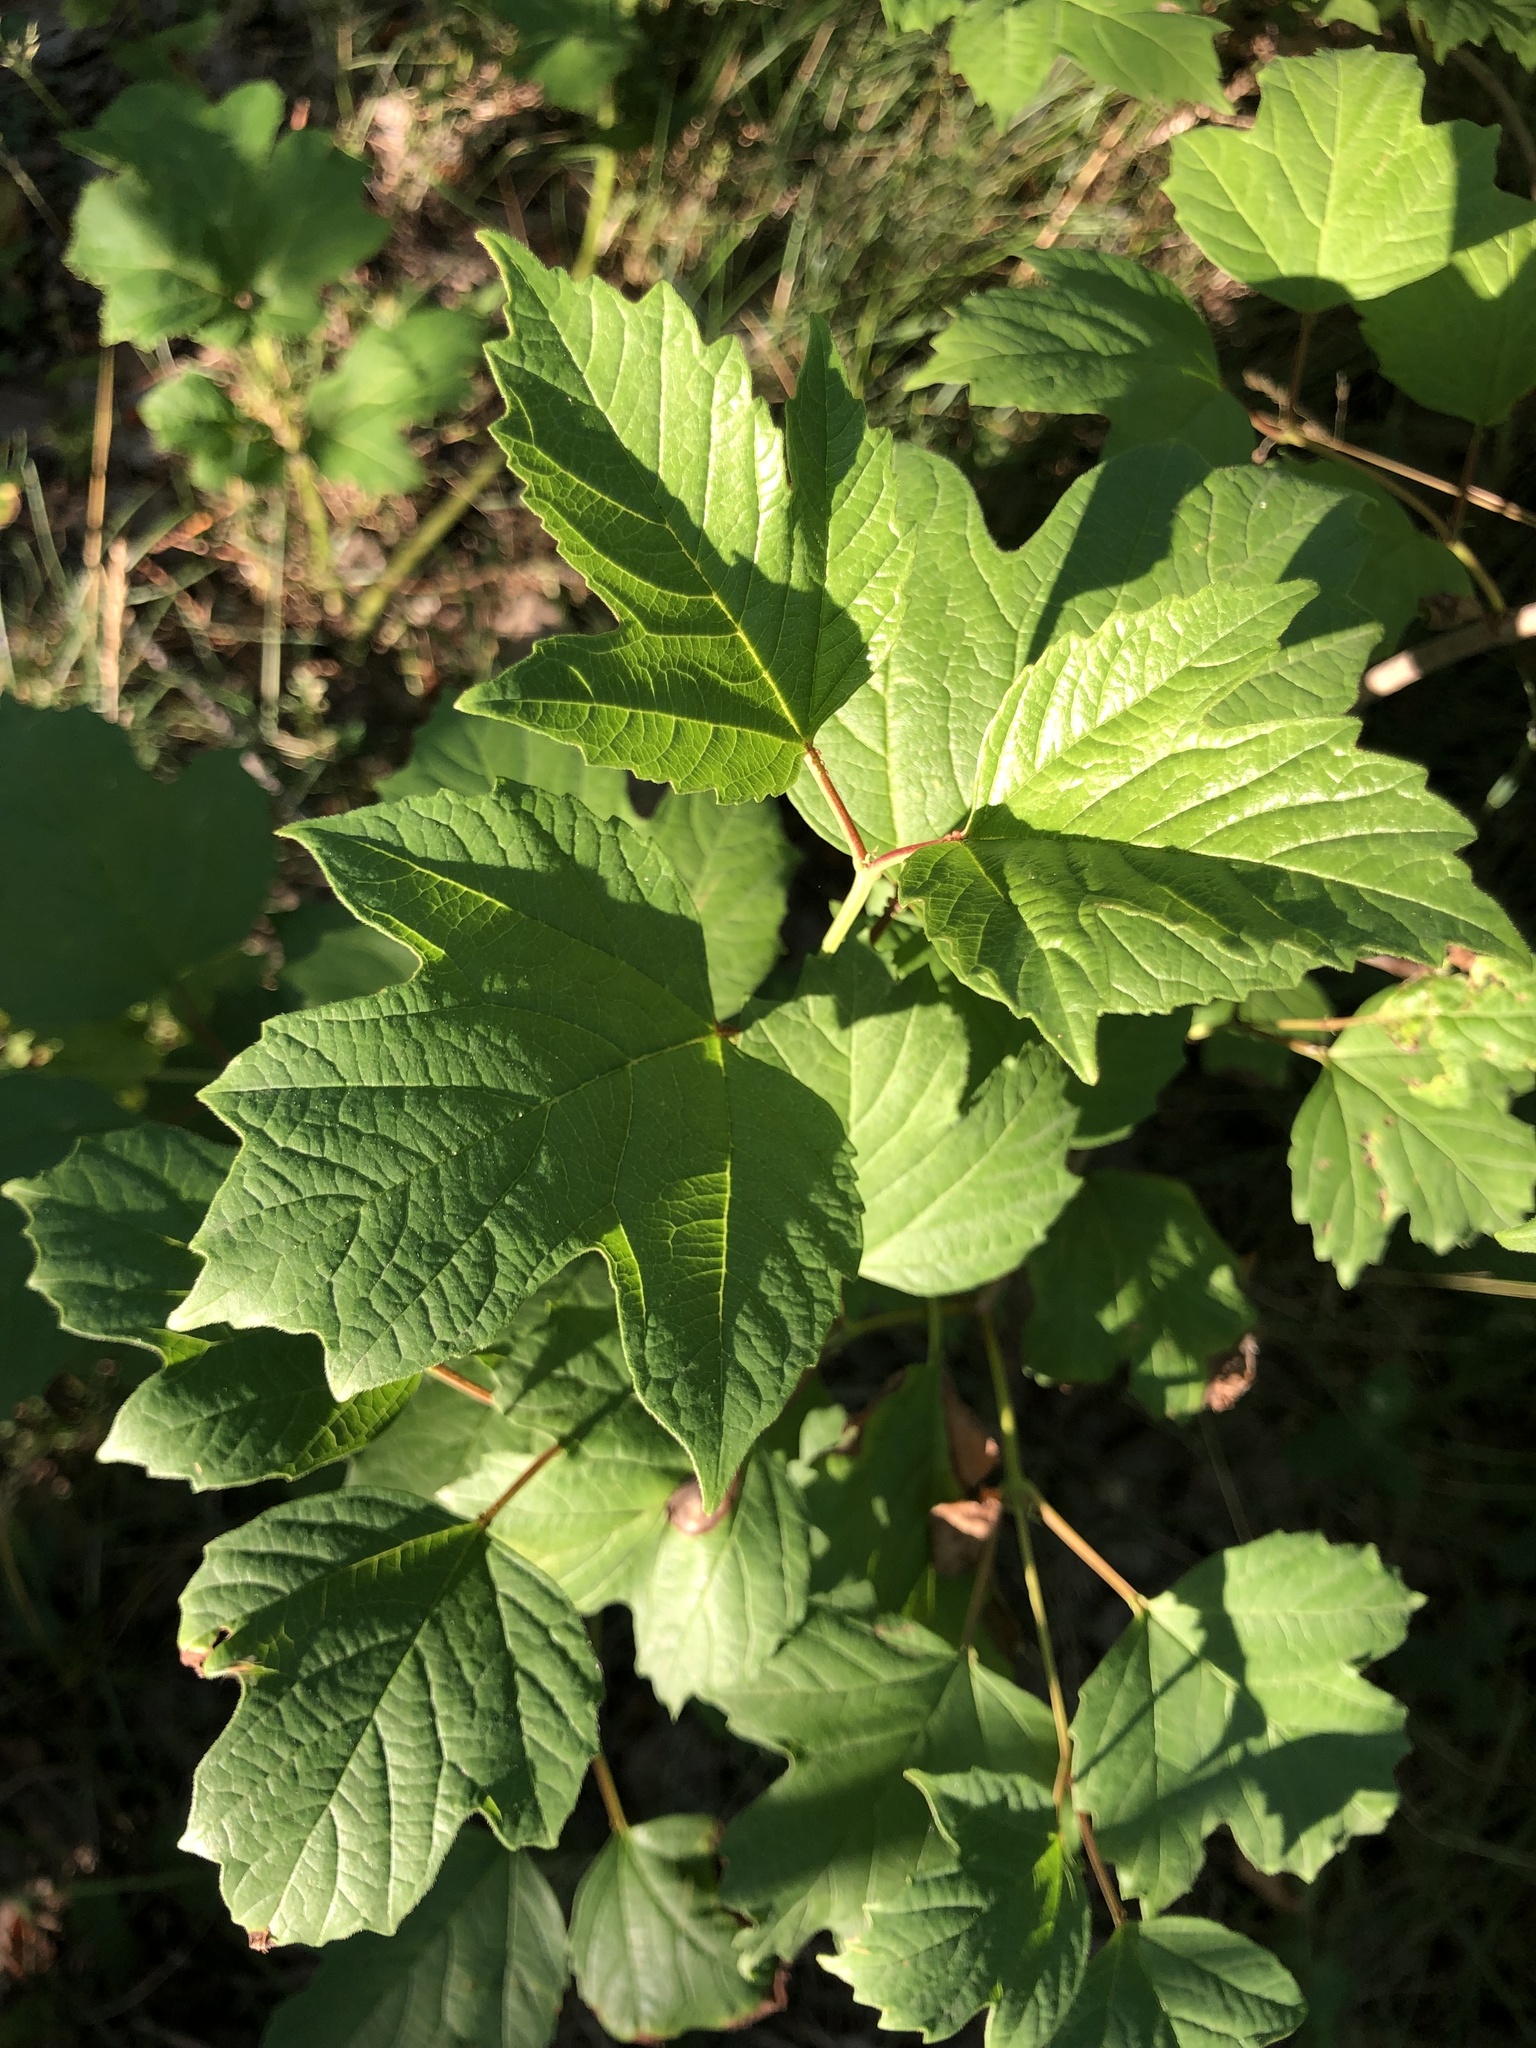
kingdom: Plantae
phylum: Tracheophyta
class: Magnoliopsida
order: Dipsacales
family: Viburnaceae
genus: Viburnum
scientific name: Viburnum opulus
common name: Guelder-rose
